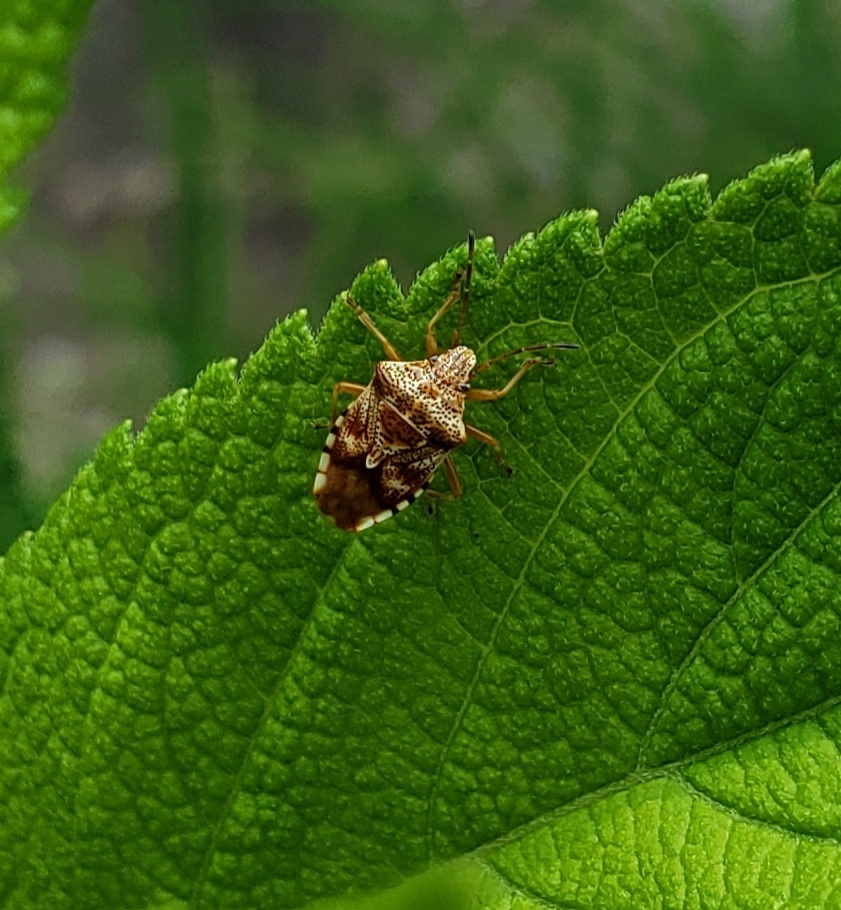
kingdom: Animalia
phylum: Arthropoda
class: Insecta
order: Hemiptera
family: Acanthosomatidae
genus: Elasmucha
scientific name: Elasmucha lateralis
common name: Shield bug
